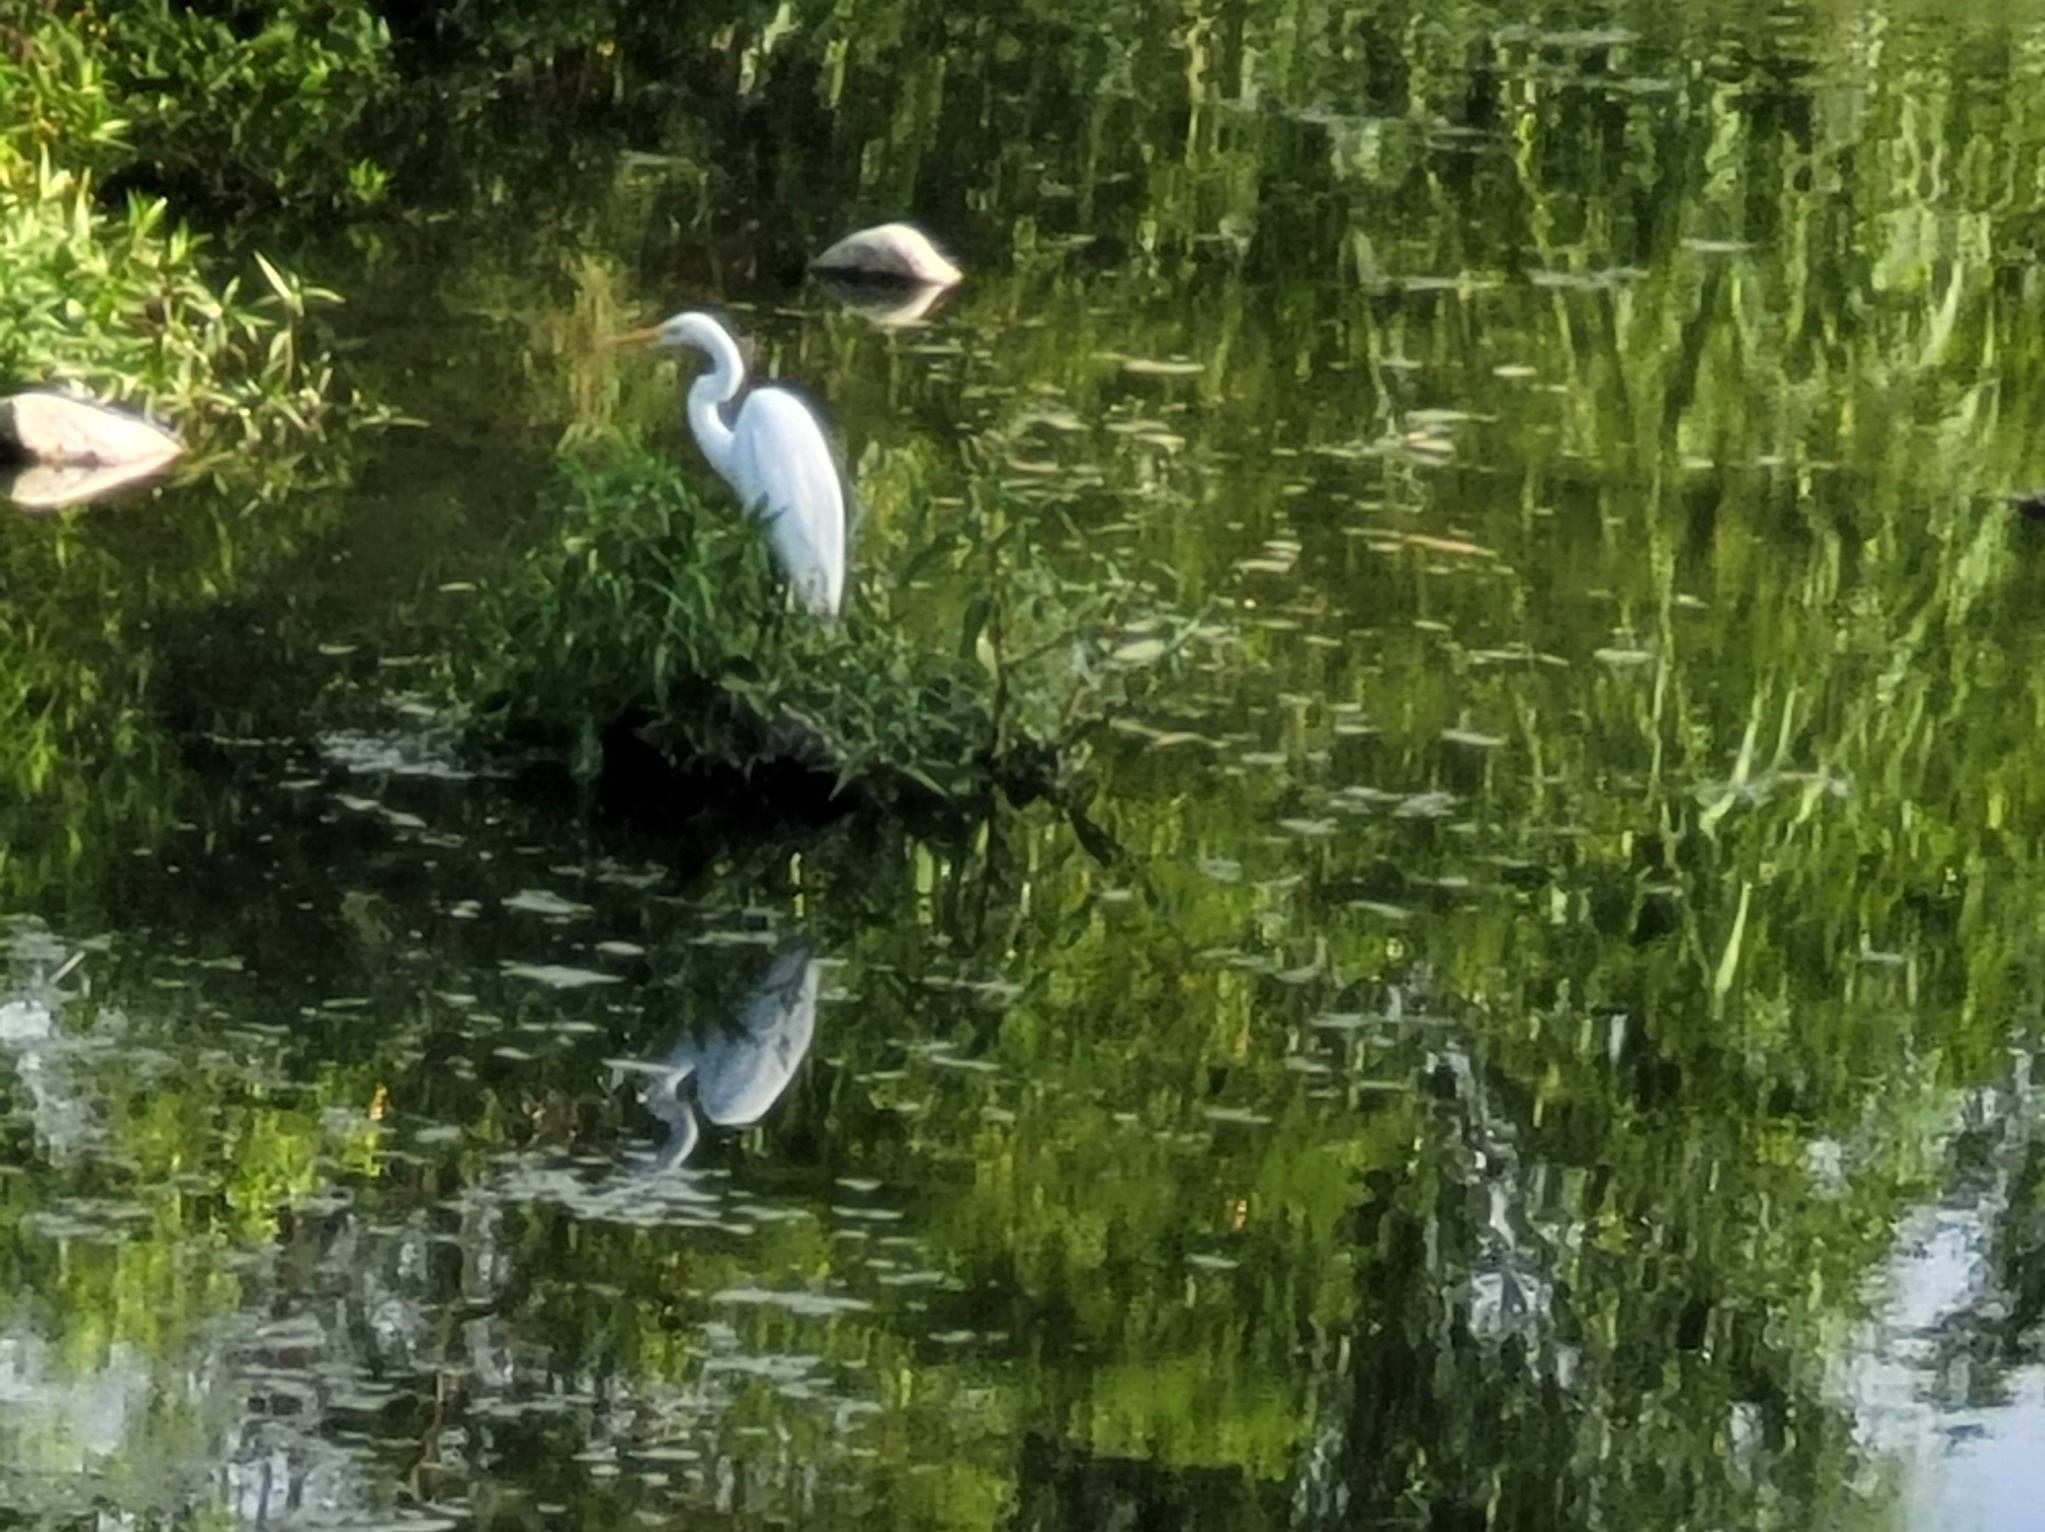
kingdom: Animalia
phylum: Chordata
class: Aves
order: Pelecaniformes
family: Ardeidae
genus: Ardea
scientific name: Ardea alba
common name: Great egret
